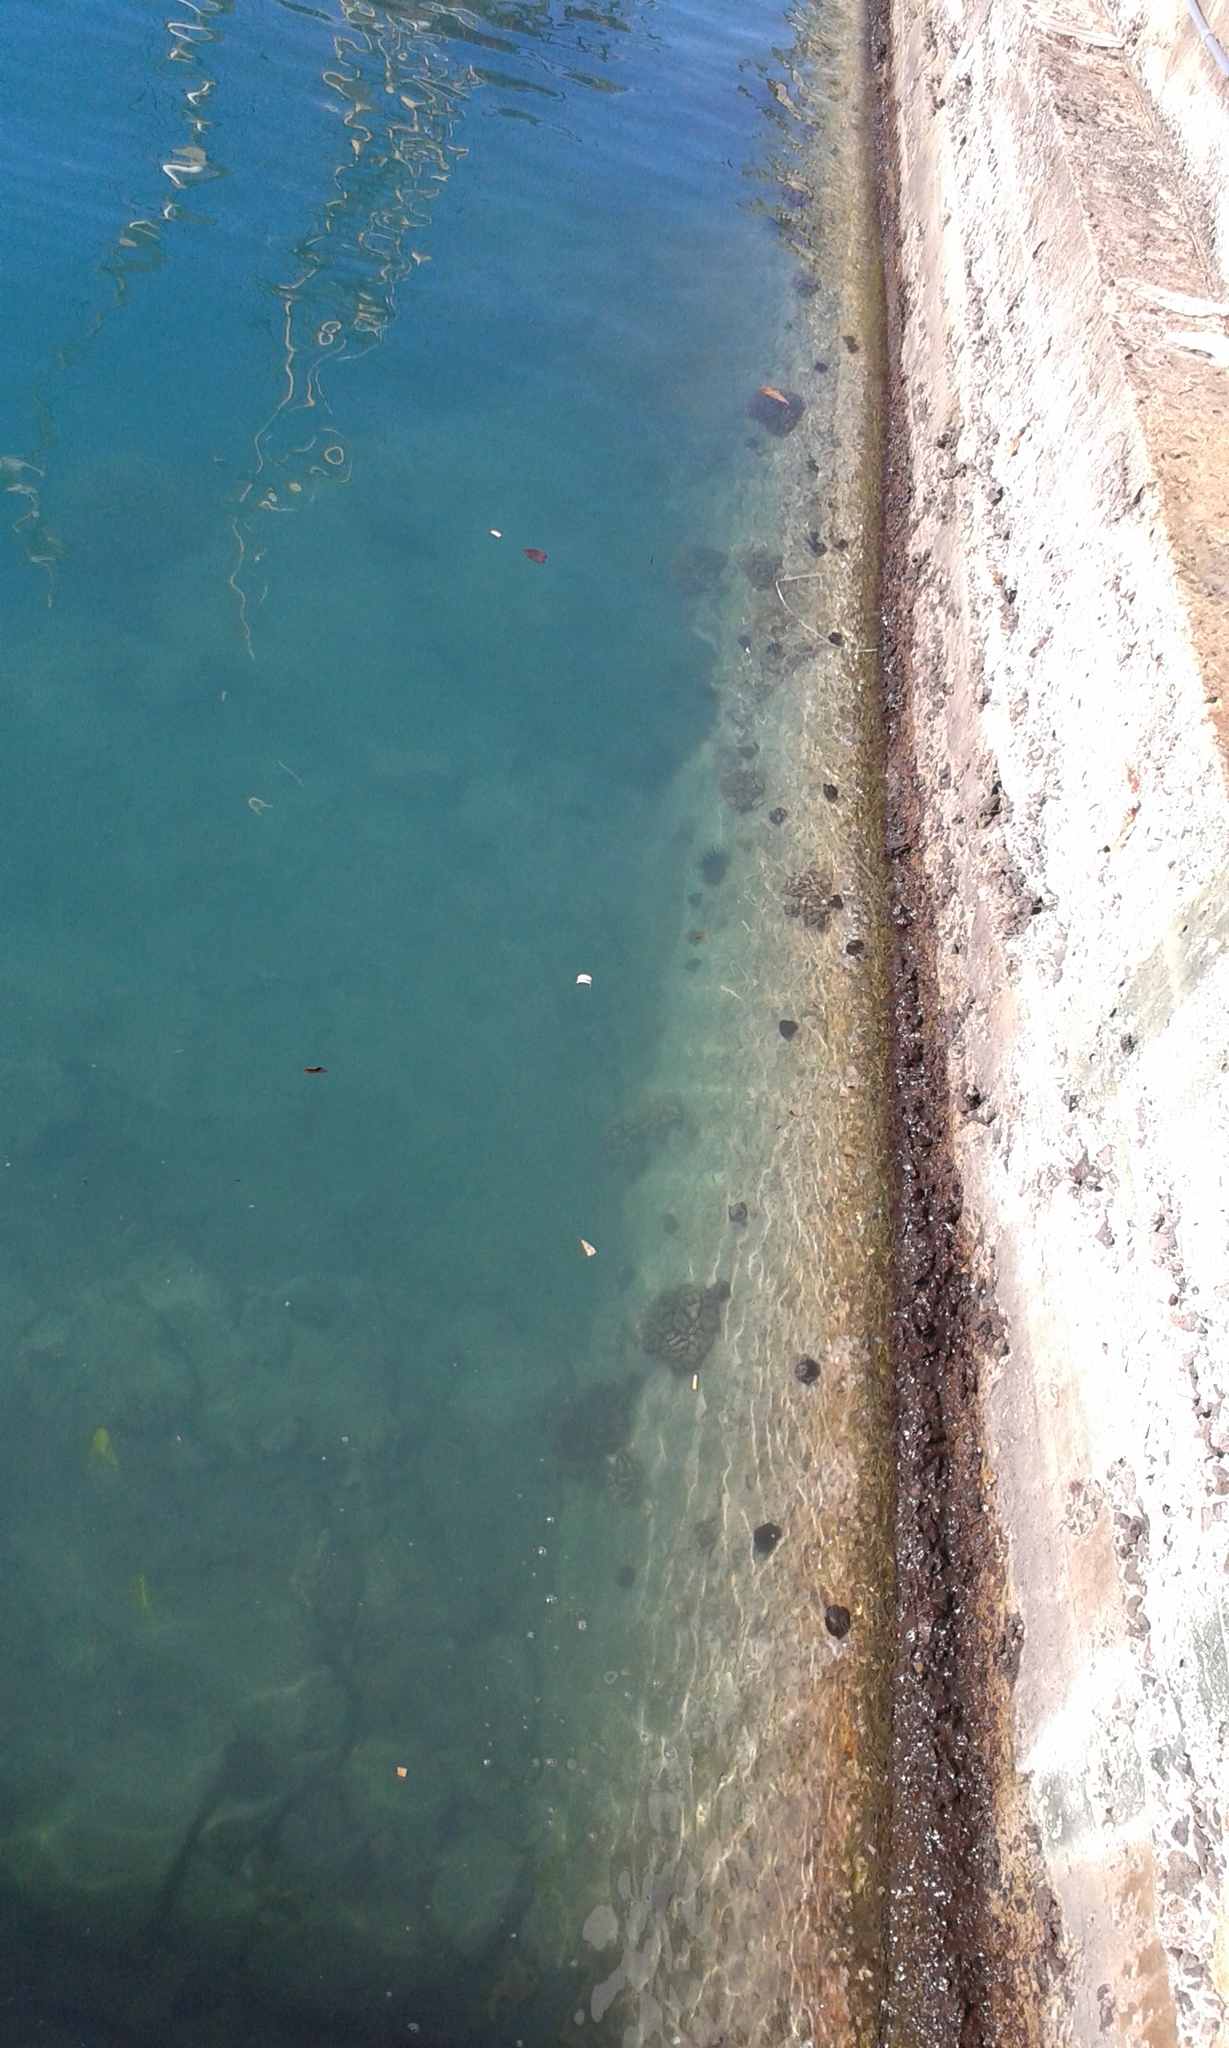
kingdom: Animalia
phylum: Echinodermata
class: Echinoidea
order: Camarodonta
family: Toxopneustidae
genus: Tripneustes
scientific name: Tripneustes gratilla
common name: Bischofsmützenseeigel
